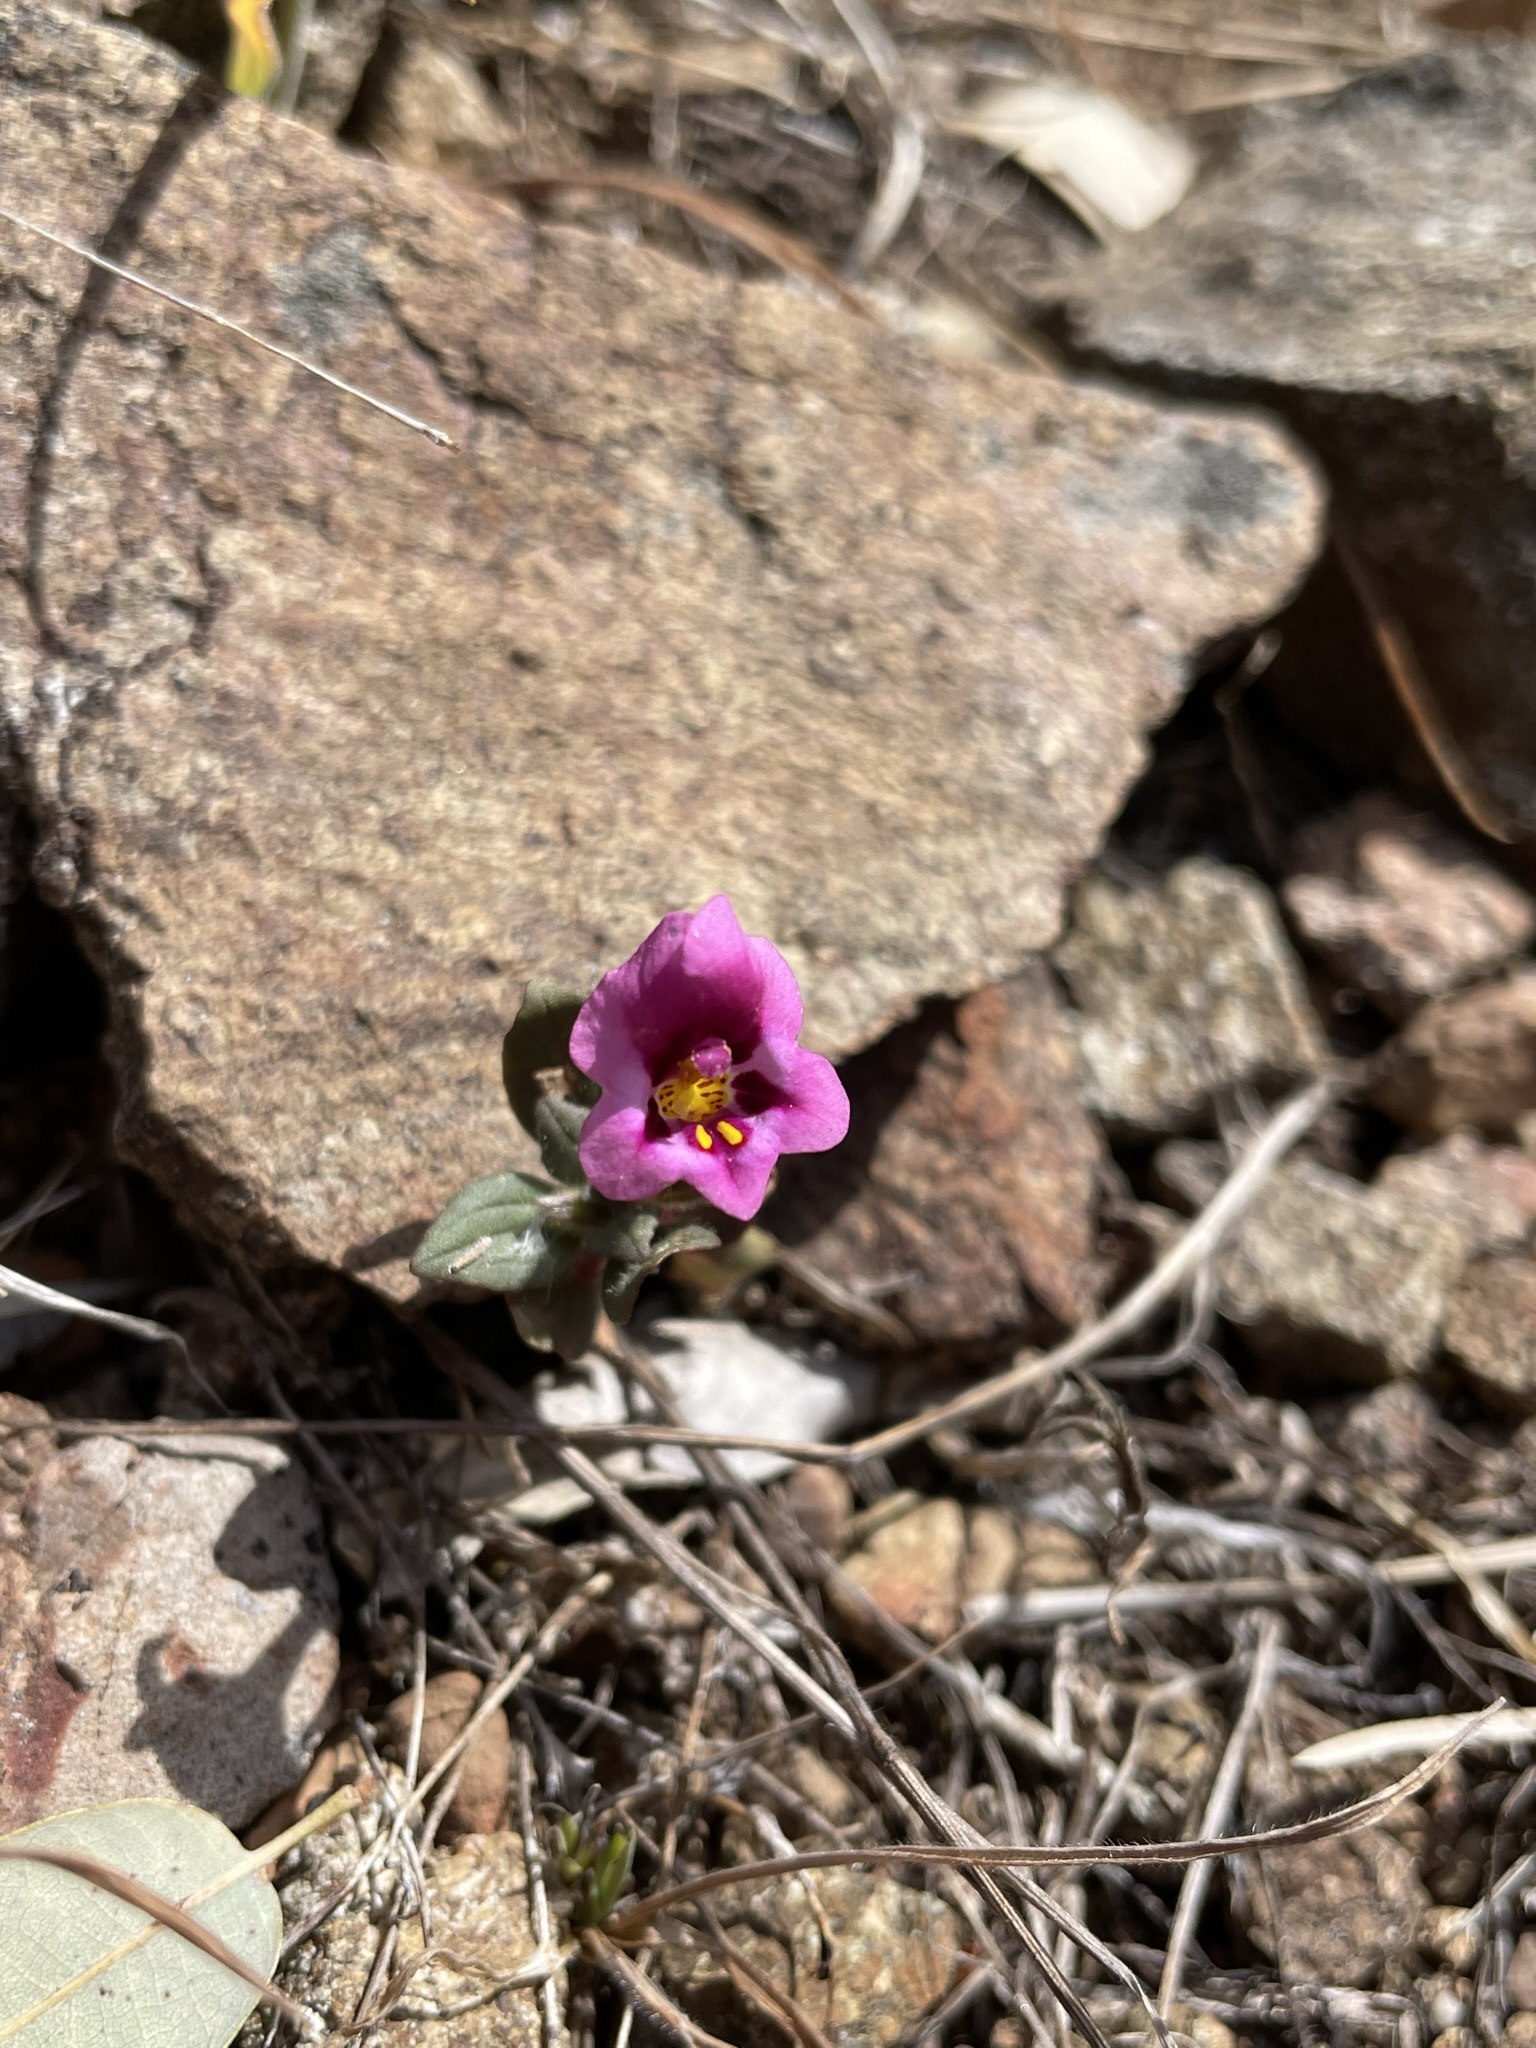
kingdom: Plantae
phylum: Tracheophyta
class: Magnoliopsida
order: Lamiales
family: Phrymaceae
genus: Diplacus
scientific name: Diplacus kelloggii
